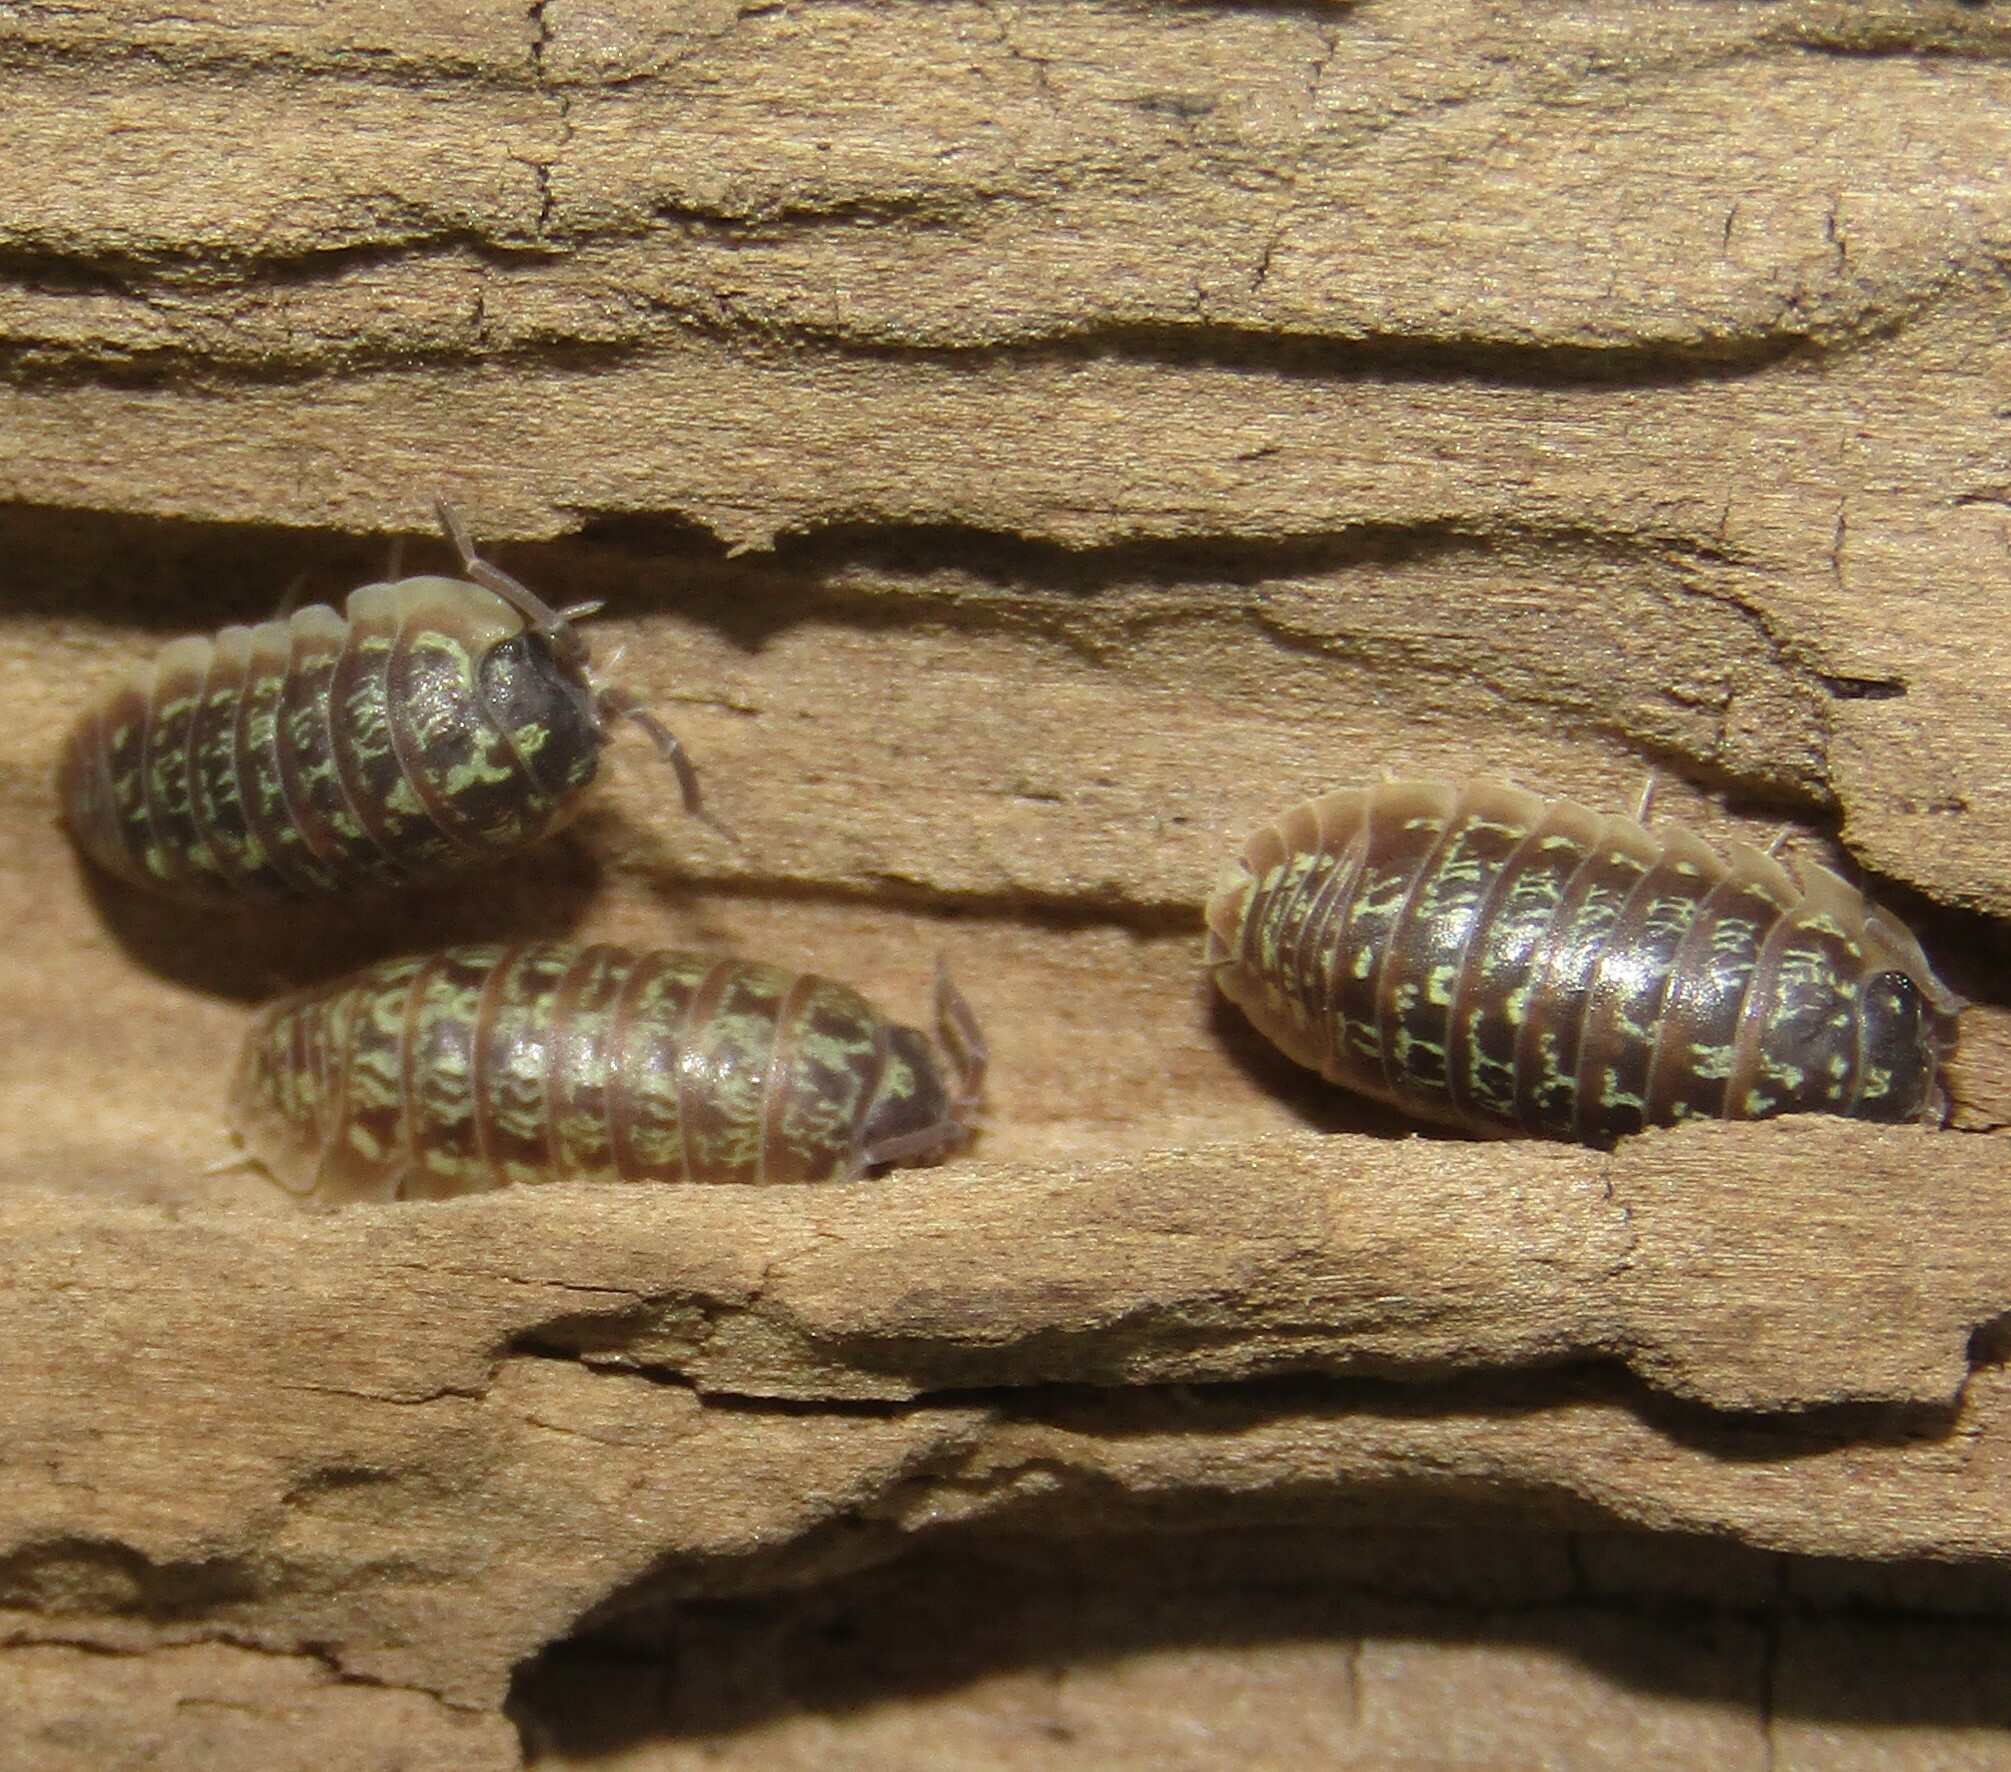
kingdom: Animalia
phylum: Arthropoda
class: Malacostraca
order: Isopoda
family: Armadillidiidae
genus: Armadillidium
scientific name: Armadillidium versicolor
